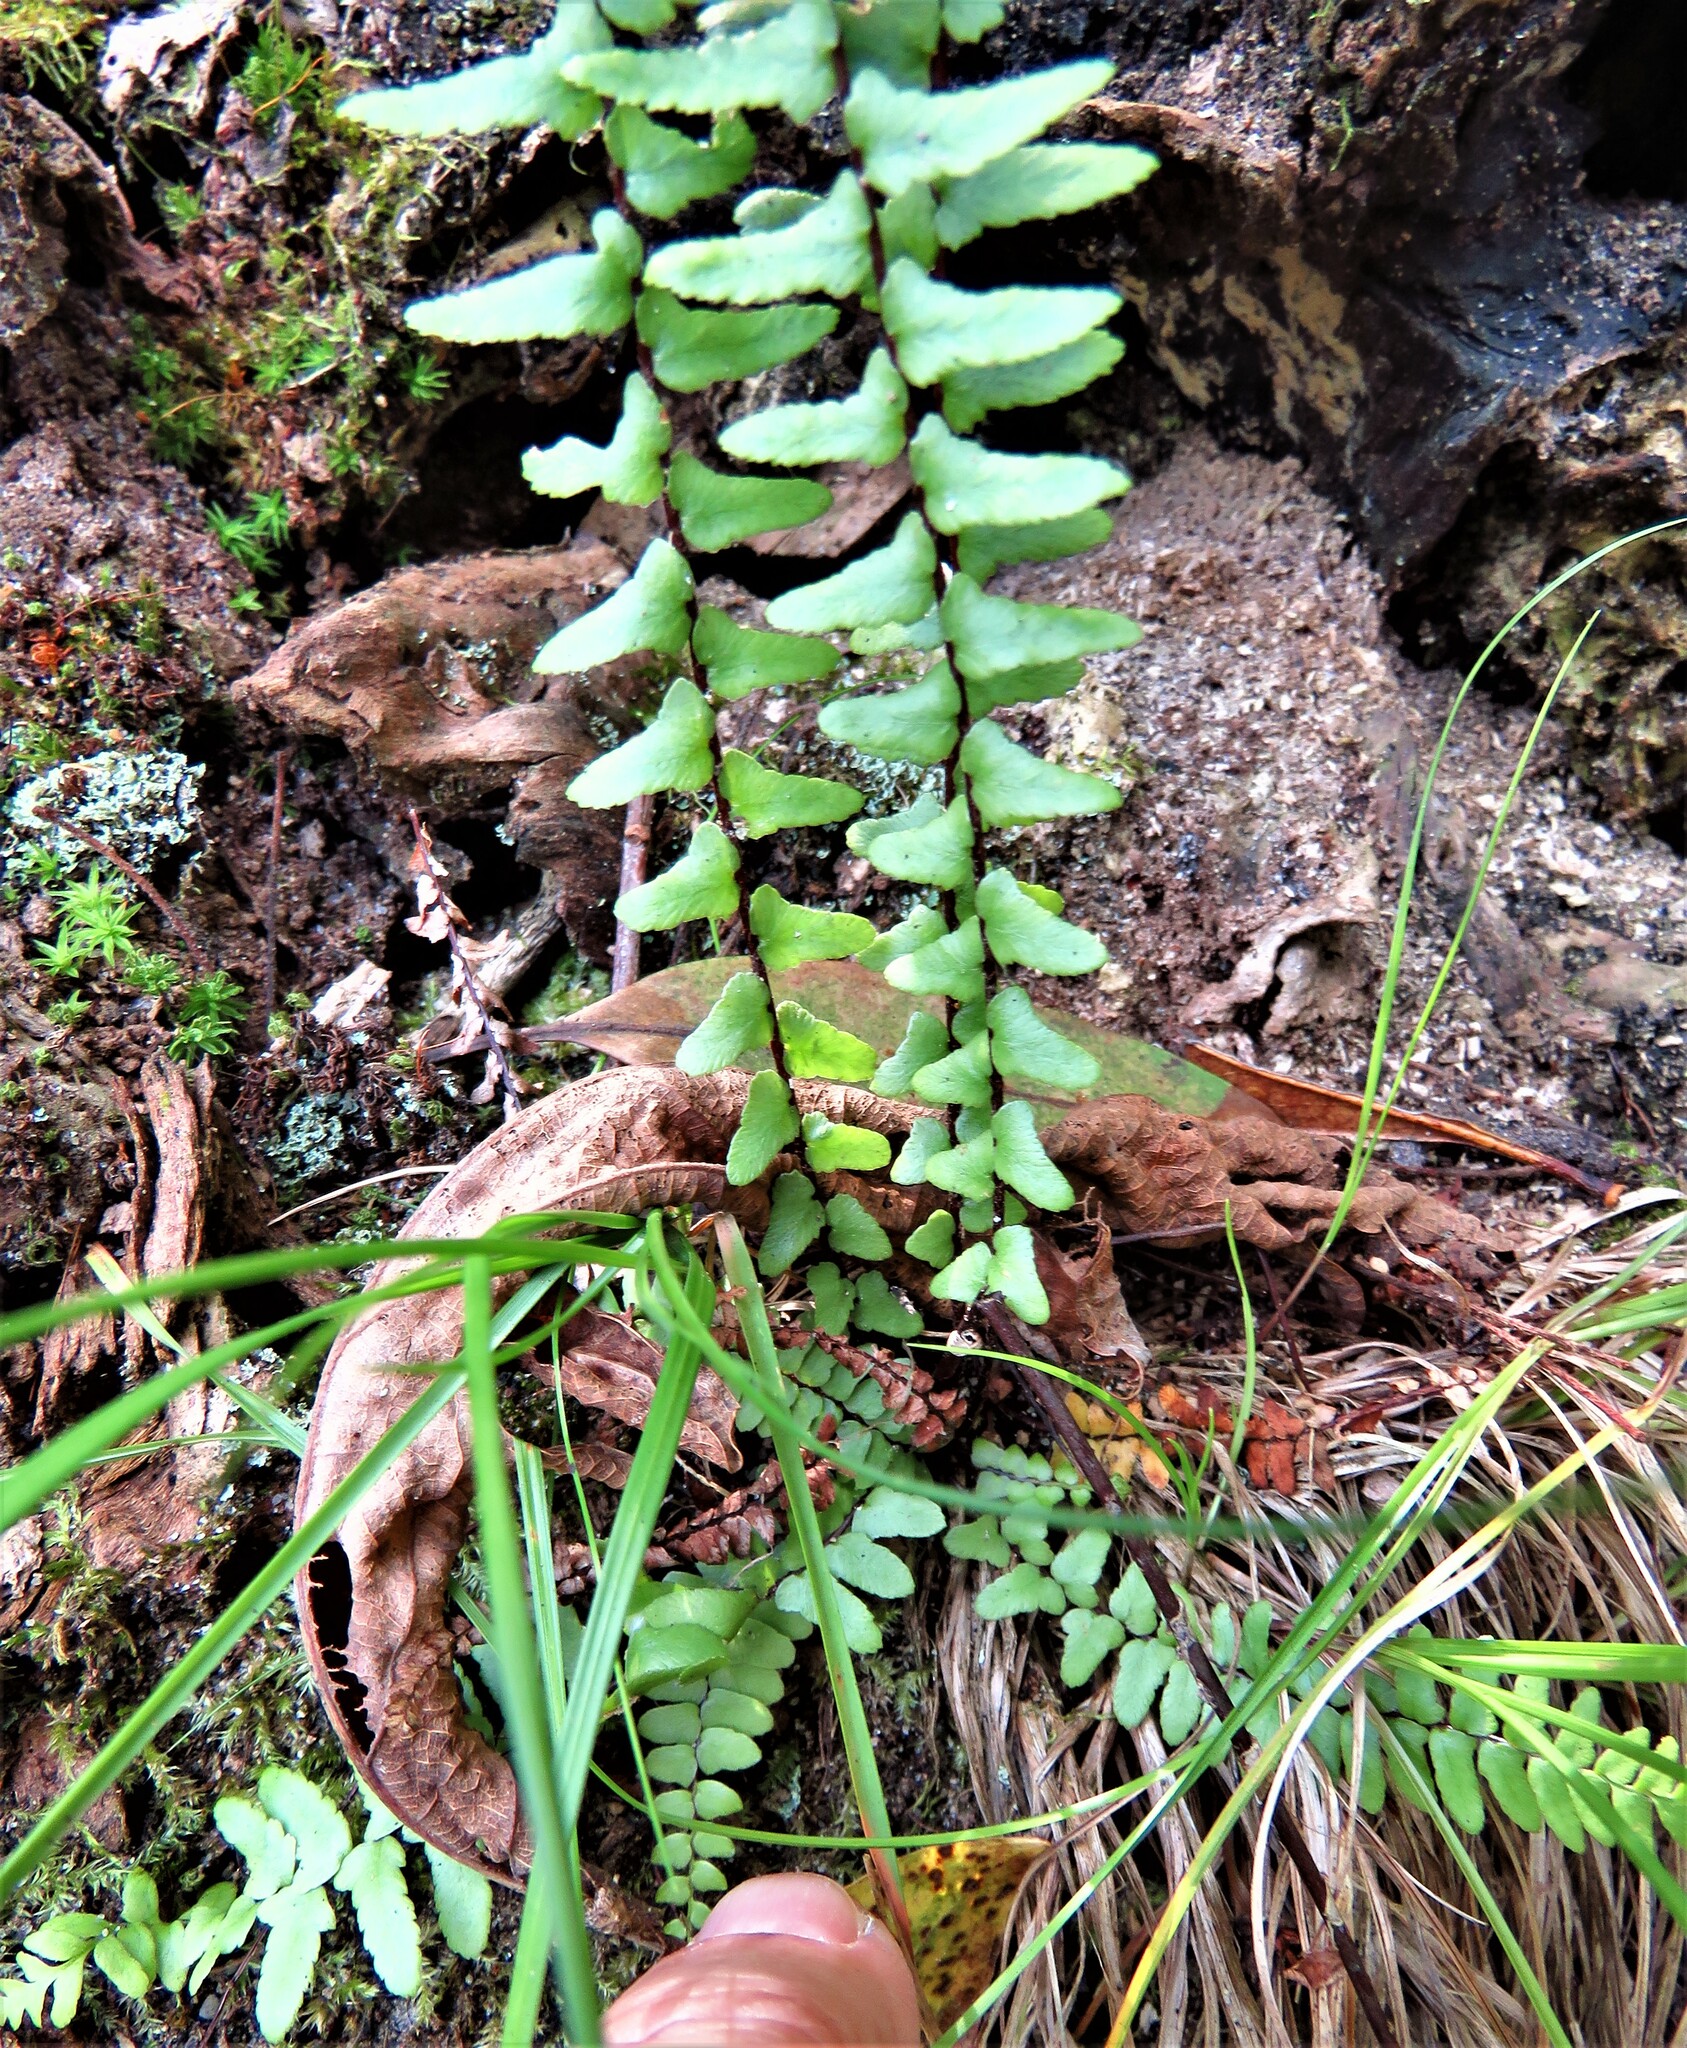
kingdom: Plantae
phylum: Tracheophyta
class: Polypodiopsida
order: Polypodiales
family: Aspleniaceae
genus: Asplenium
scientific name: Asplenium platyneuron
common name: Ebony spleenwort
